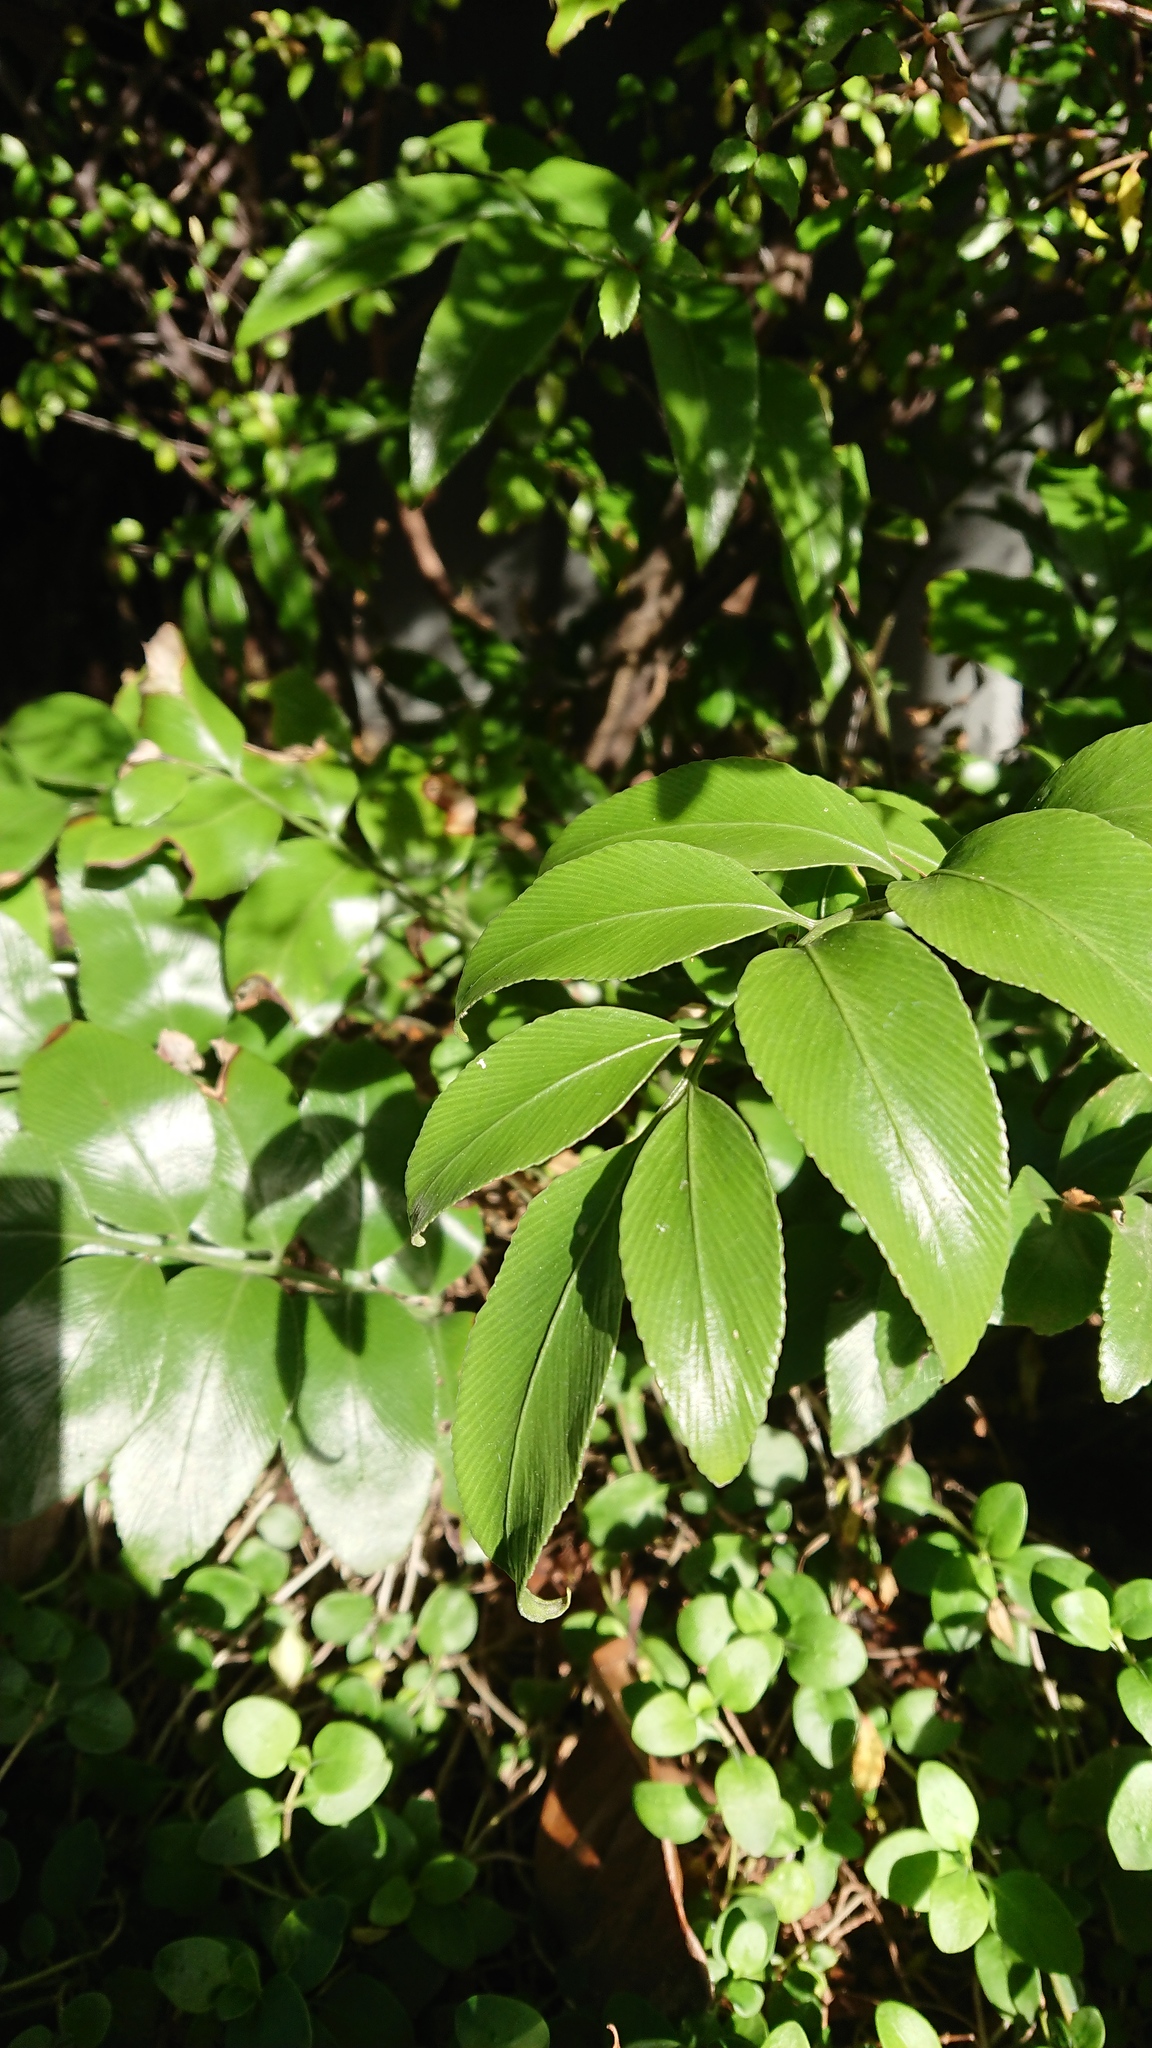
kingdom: Plantae
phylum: Tracheophyta
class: Polypodiopsida
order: Polypodiales
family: Aspleniaceae
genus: Asplenium
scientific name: Asplenium oblongifolium
